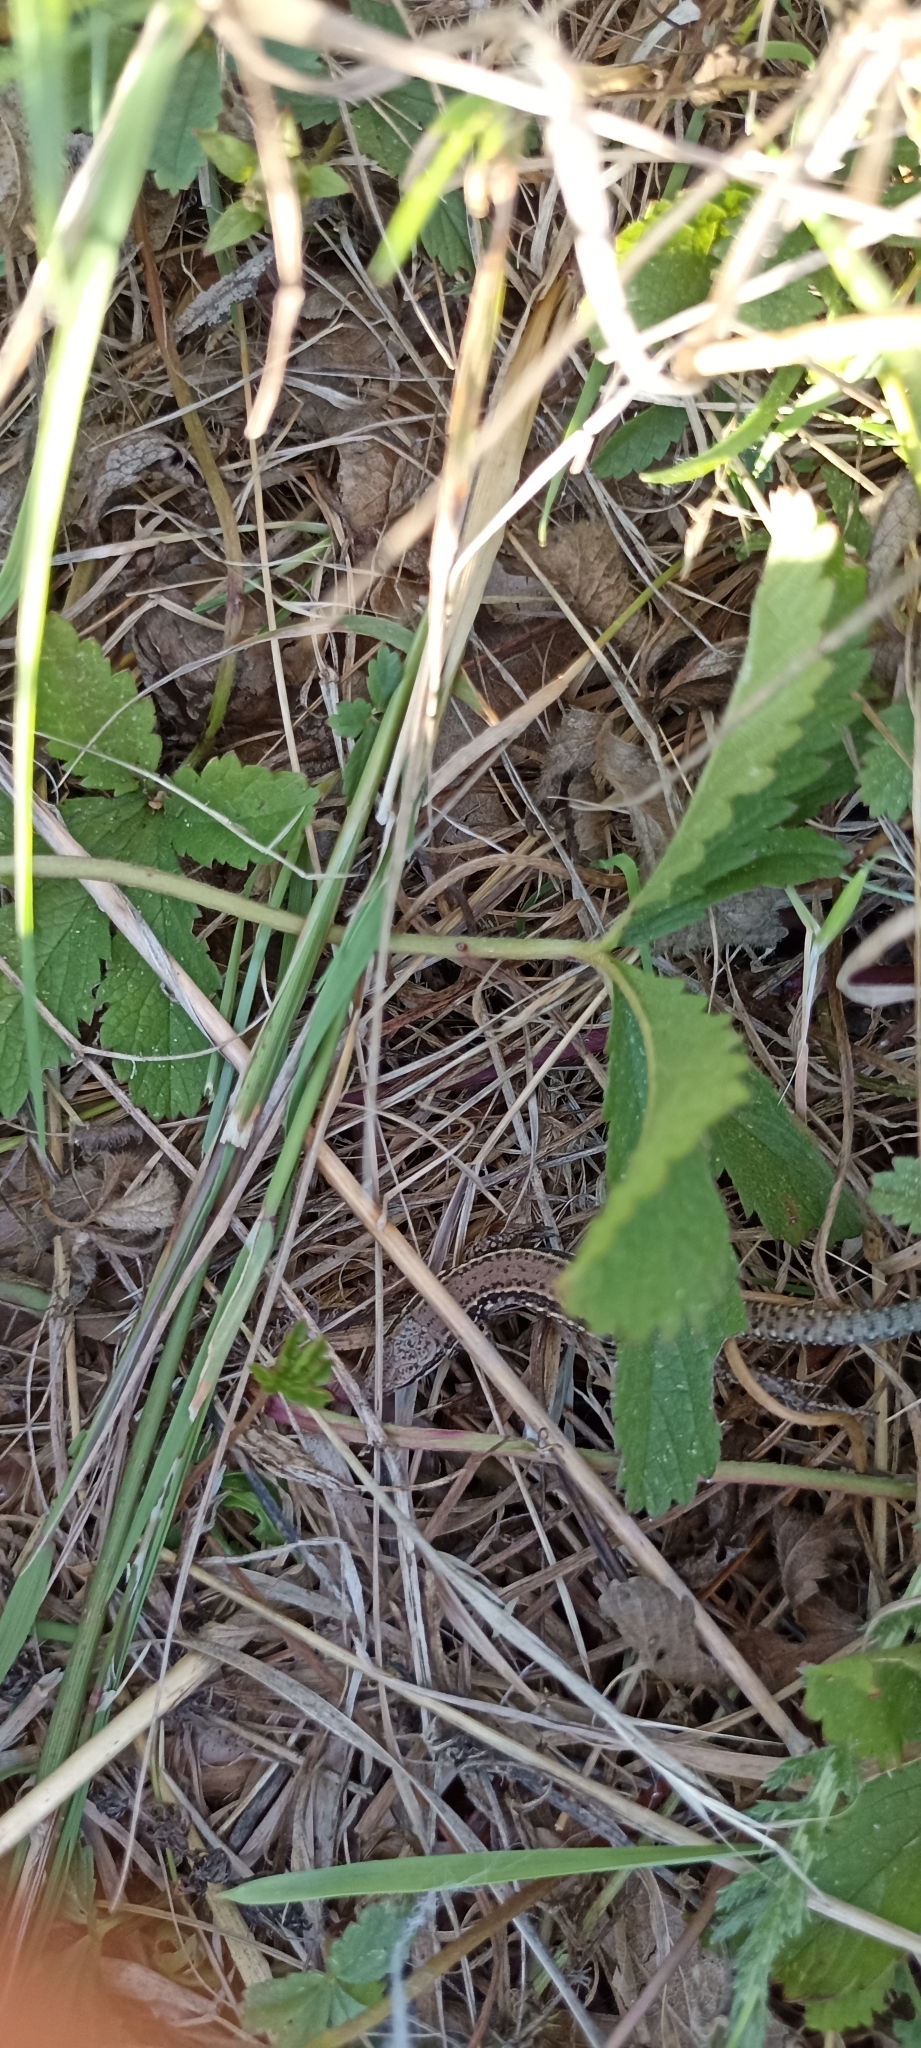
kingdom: Animalia
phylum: Chordata
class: Squamata
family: Lacertidae
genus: Podarcis
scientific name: Podarcis muralis
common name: Common wall lizard
